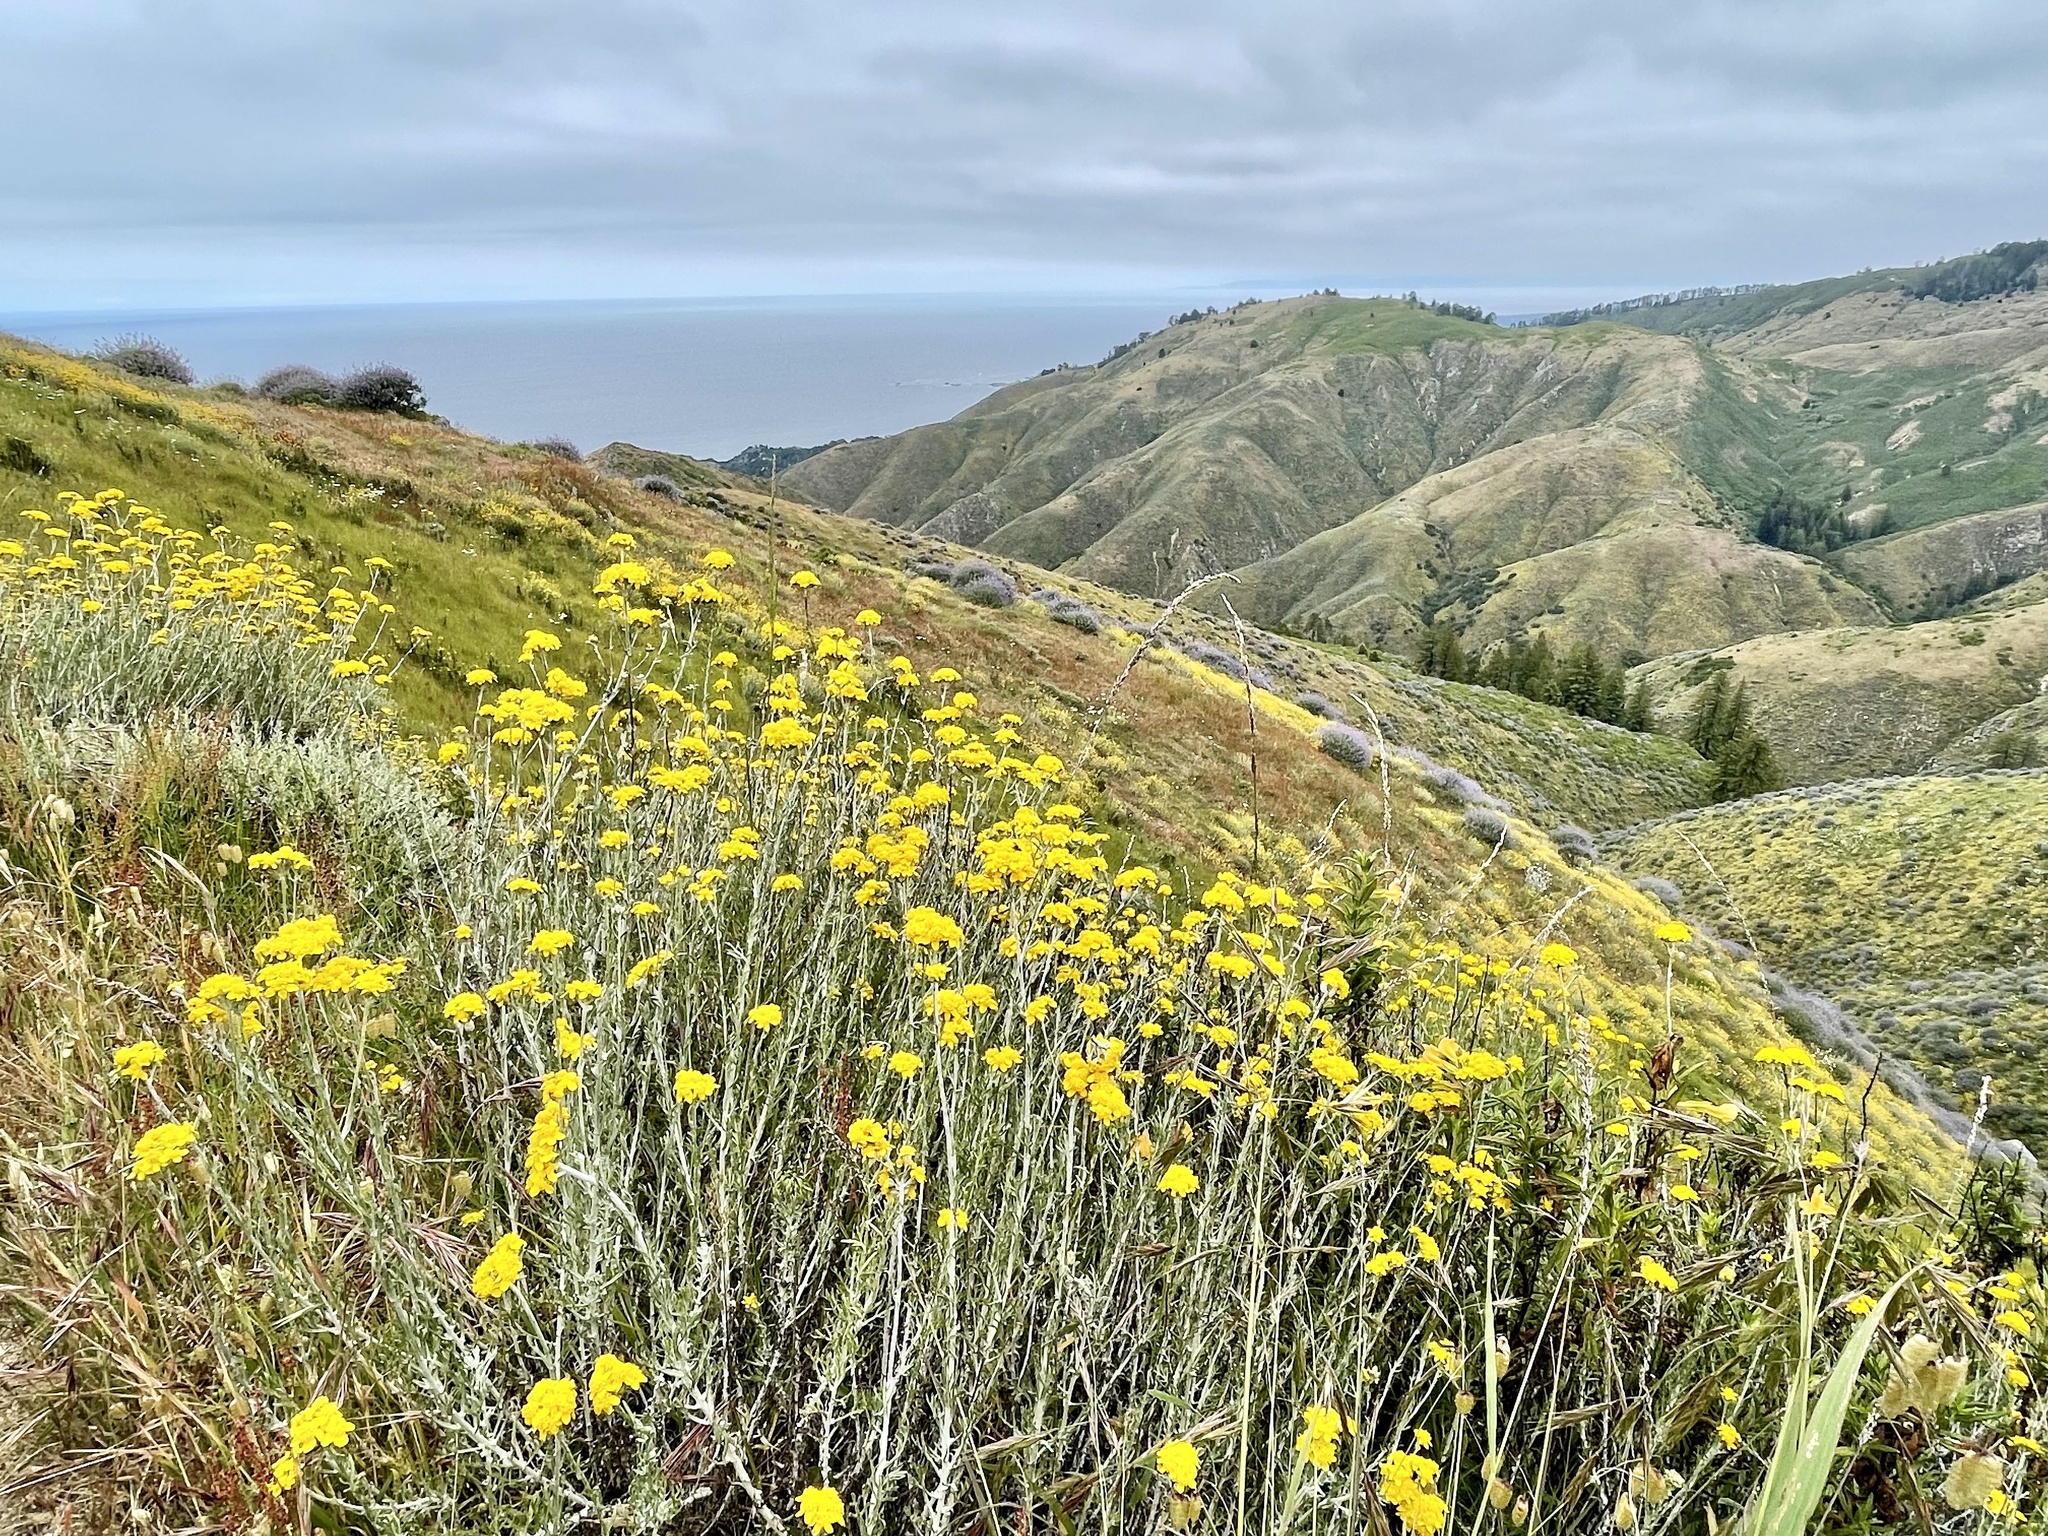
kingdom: Plantae
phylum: Tracheophyta
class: Magnoliopsida
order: Asterales
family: Asteraceae
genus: Eriophyllum
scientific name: Eriophyllum confertiflorum
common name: Golden-yarrow
